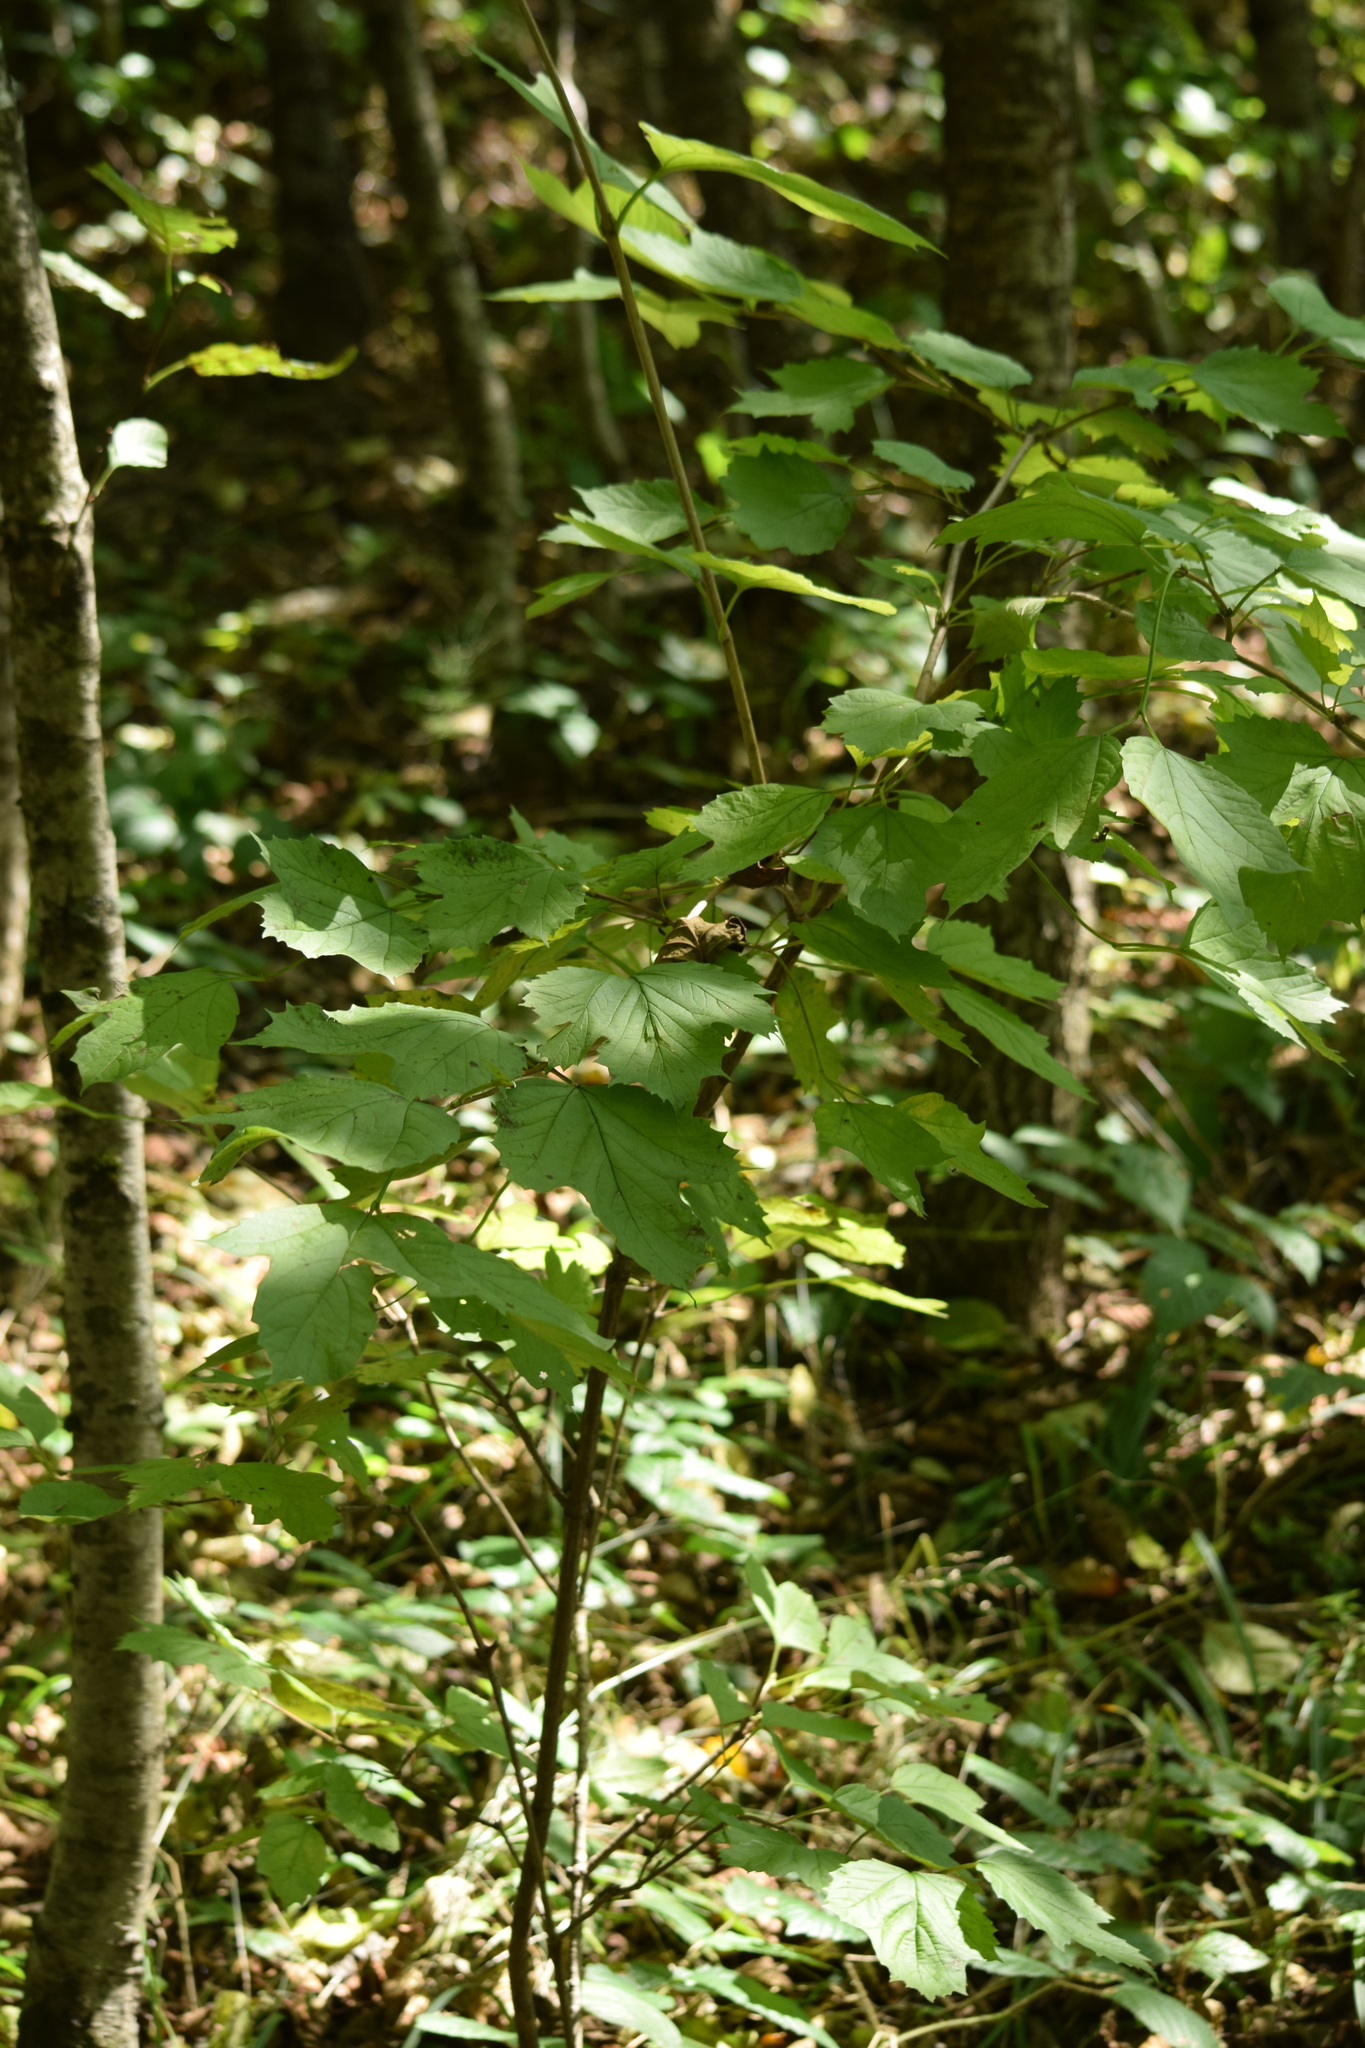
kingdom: Plantae
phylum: Tracheophyta
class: Magnoliopsida
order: Dipsacales
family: Viburnaceae
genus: Viburnum
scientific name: Viburnum opulus
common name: Guelder-rose
